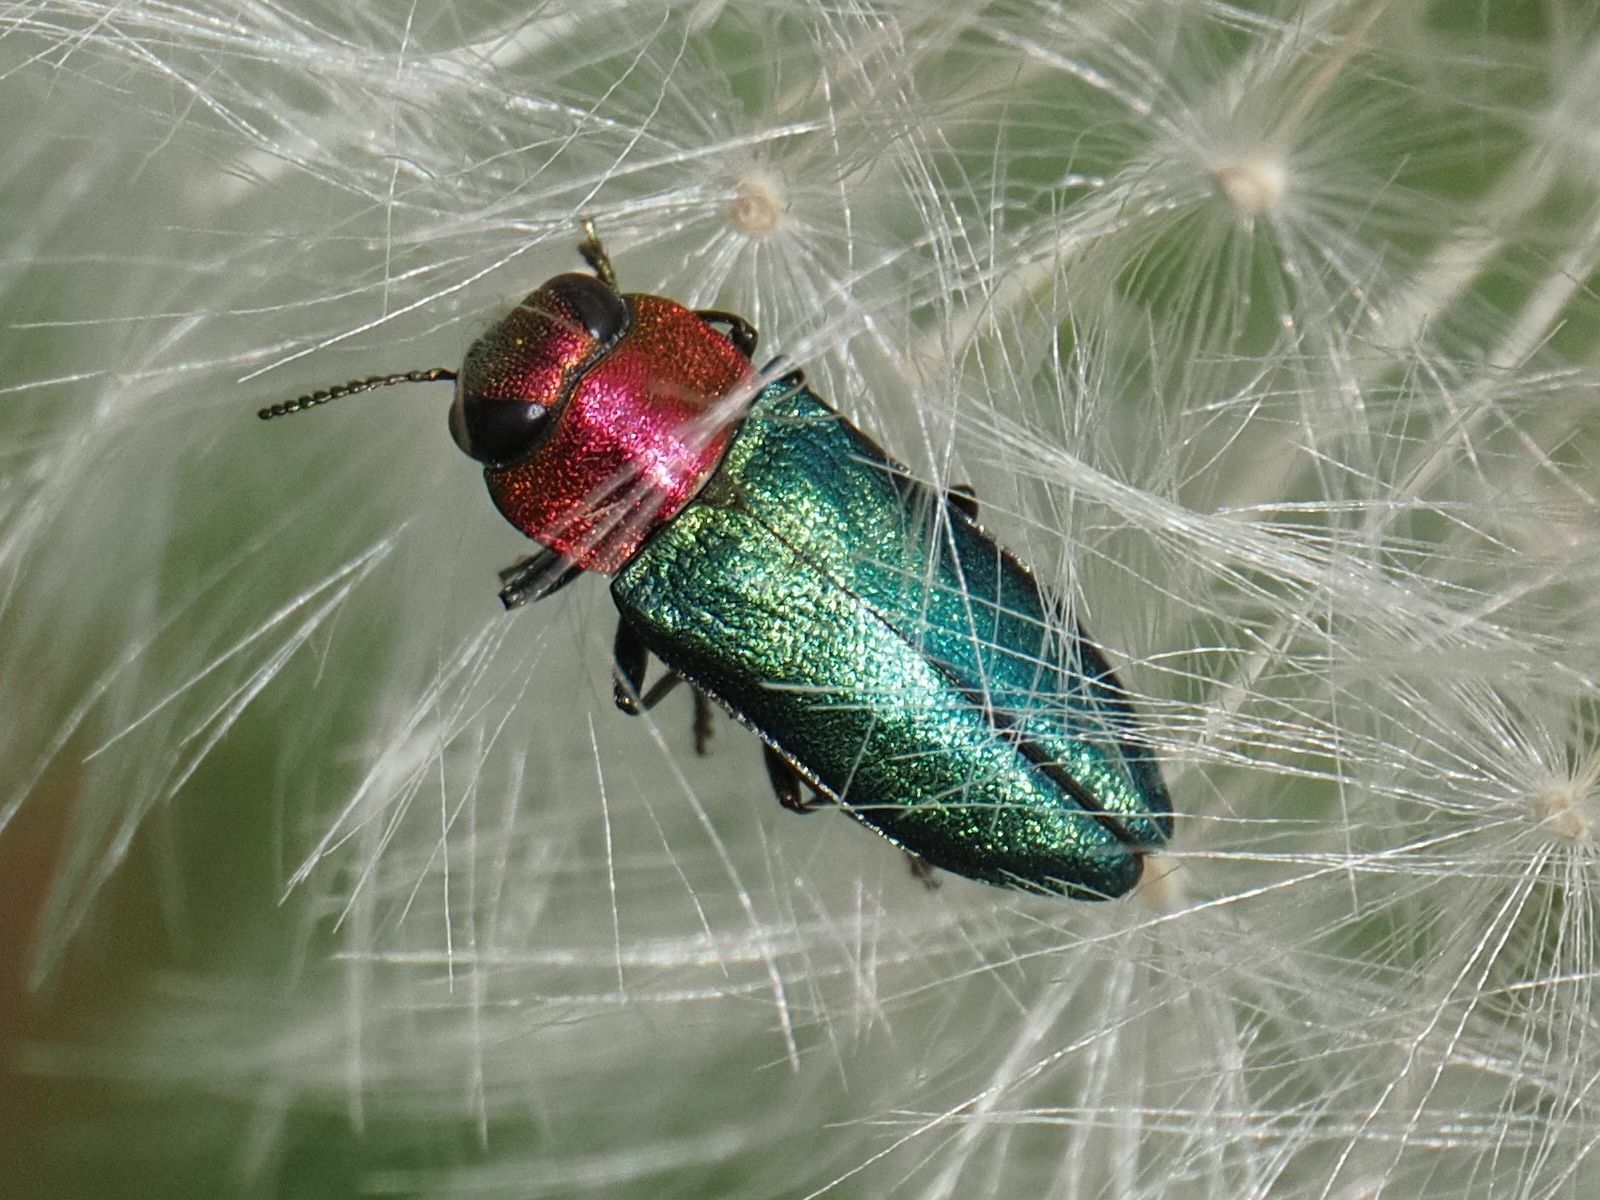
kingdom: Animalia
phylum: Arthropoda
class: Insecta
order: Coleoptera
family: Buprestidae
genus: Anthaxia
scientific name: Anthaxia nitidula
